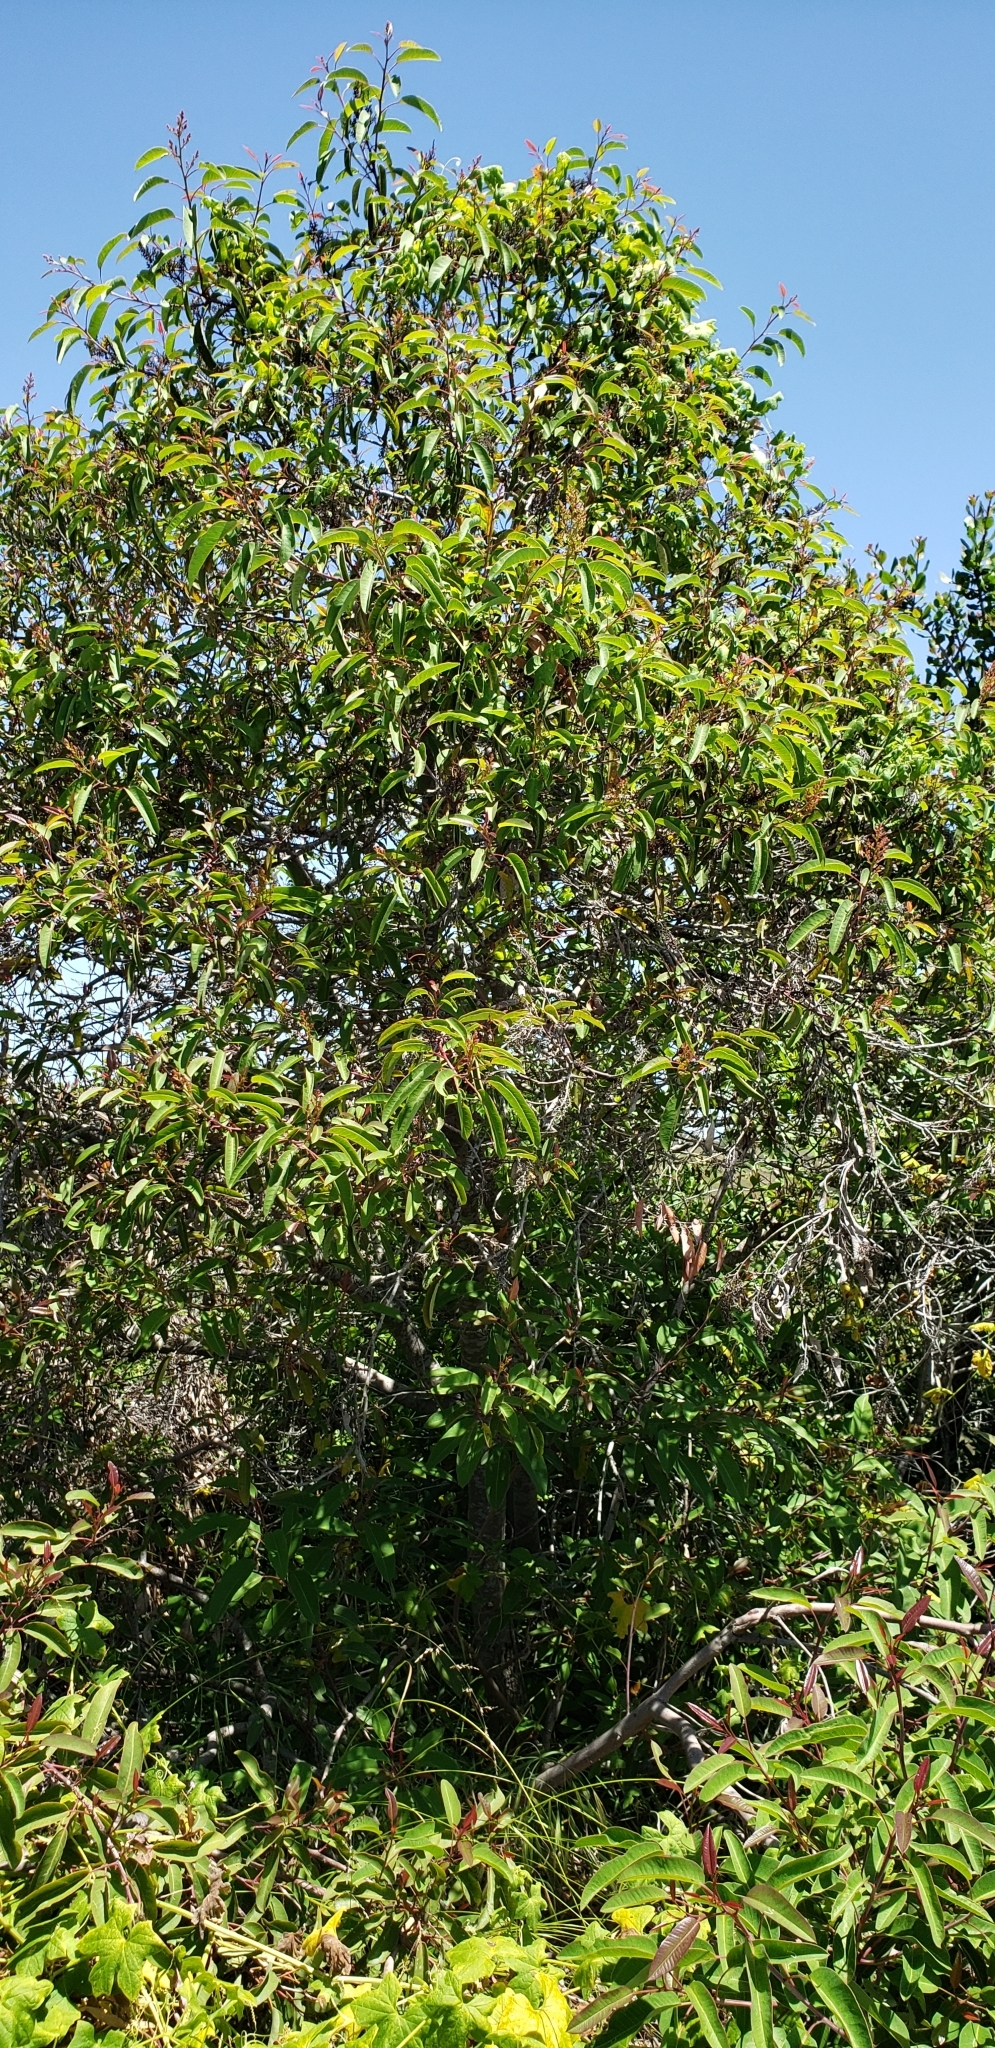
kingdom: Plantae
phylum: Tracheophyta
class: Magnoliopsida
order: Sapindales
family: Anacardiaceae
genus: Malosma
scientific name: Malosma laurina
